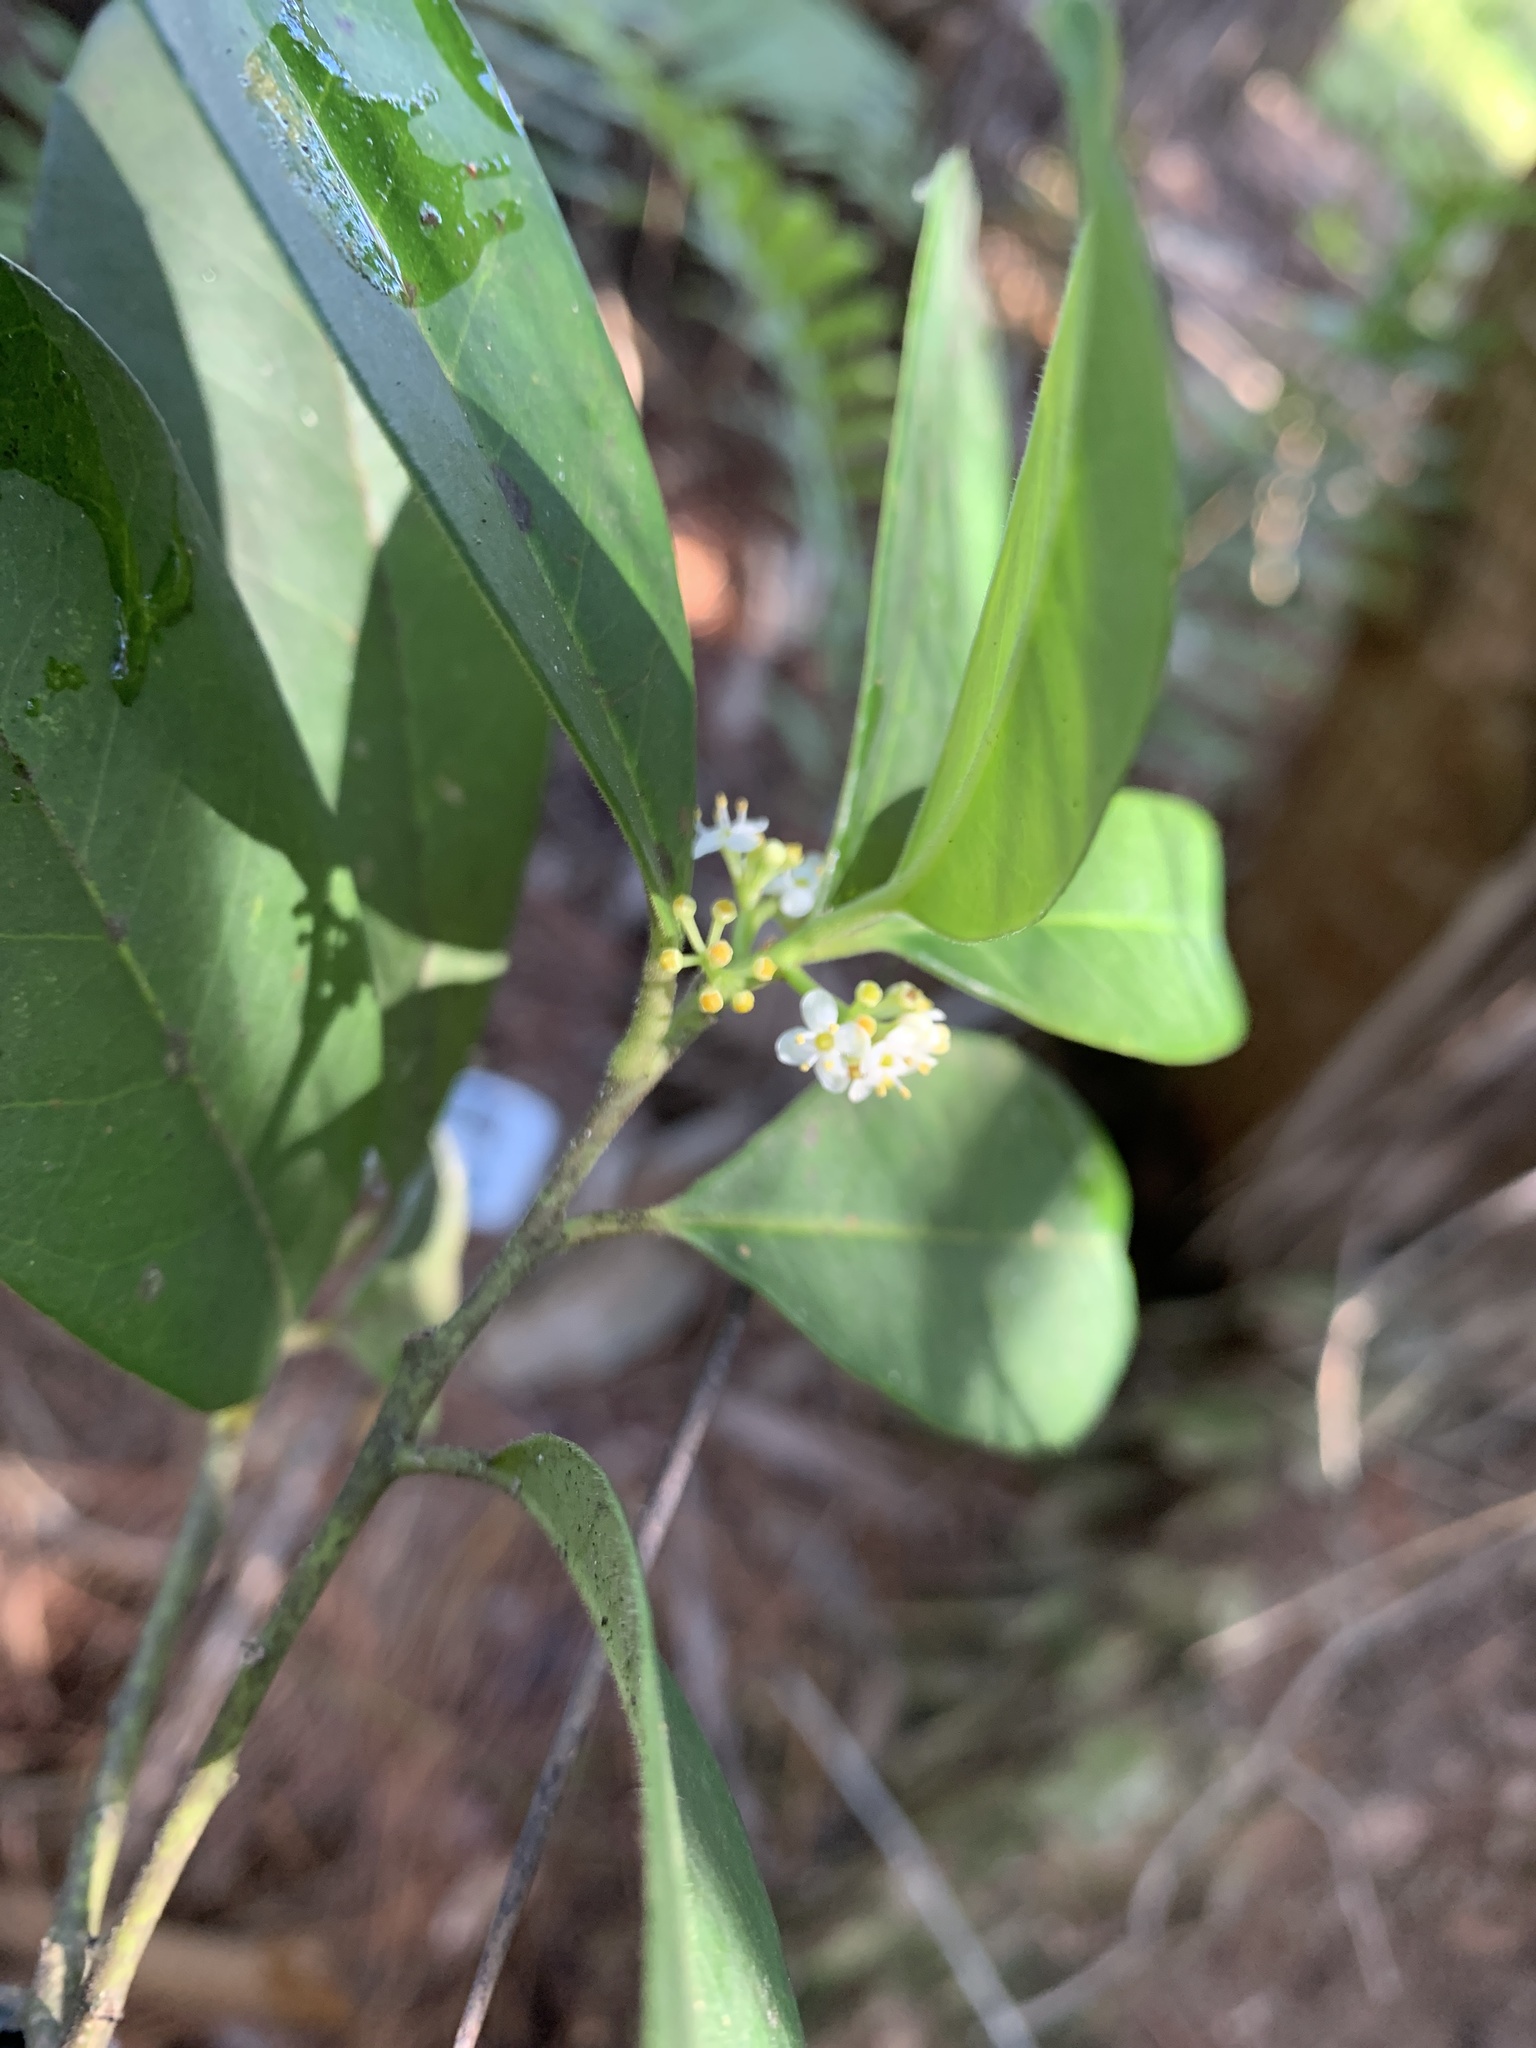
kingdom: Plantae
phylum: Tracheophyta
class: Magnoliopsida
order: Aquifoliales
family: Aquifoliaceae
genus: Ilex
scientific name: Ilex cassine
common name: Dahoon
